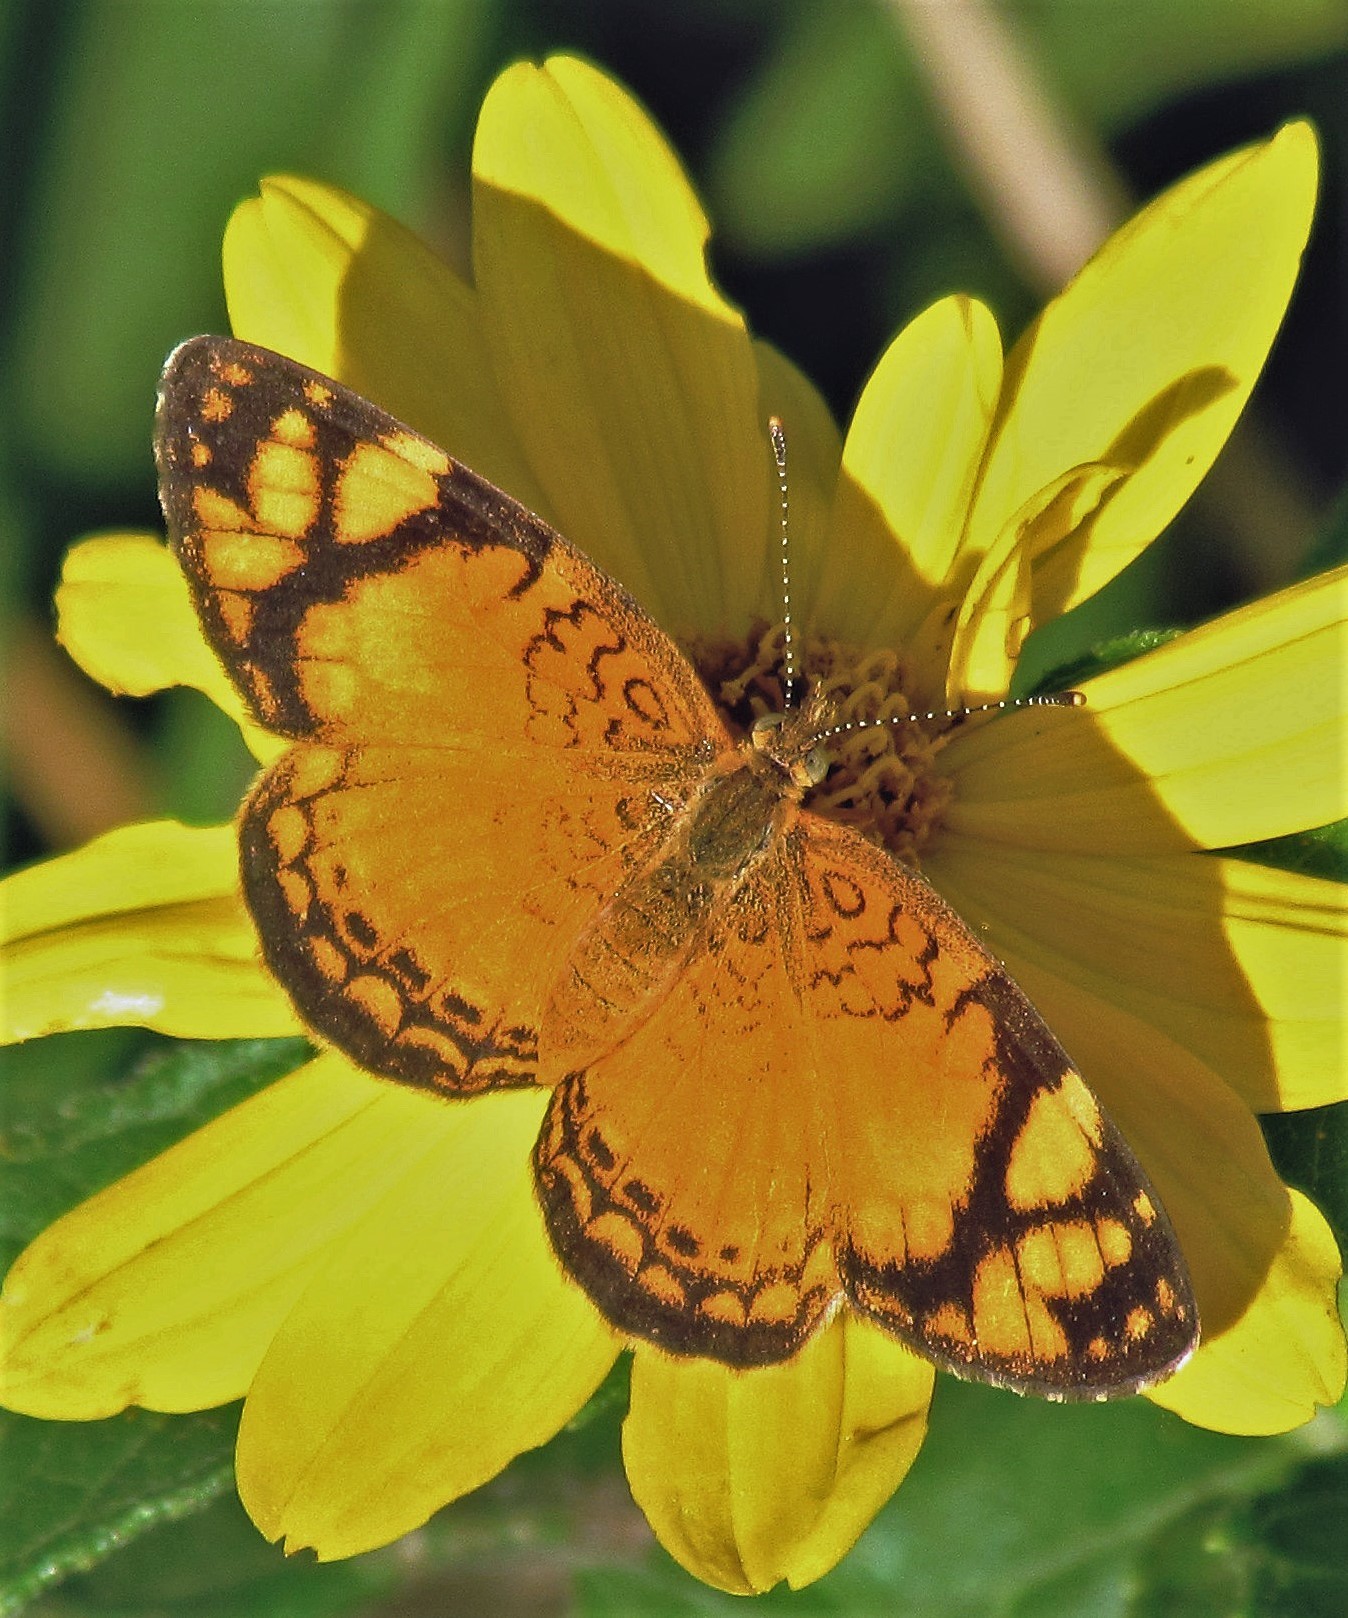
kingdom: Animalia
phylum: Arthropoda
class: Insecta
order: Lepidoptera
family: Nymphalidae
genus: Tegosa
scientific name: Tegosa orobia
